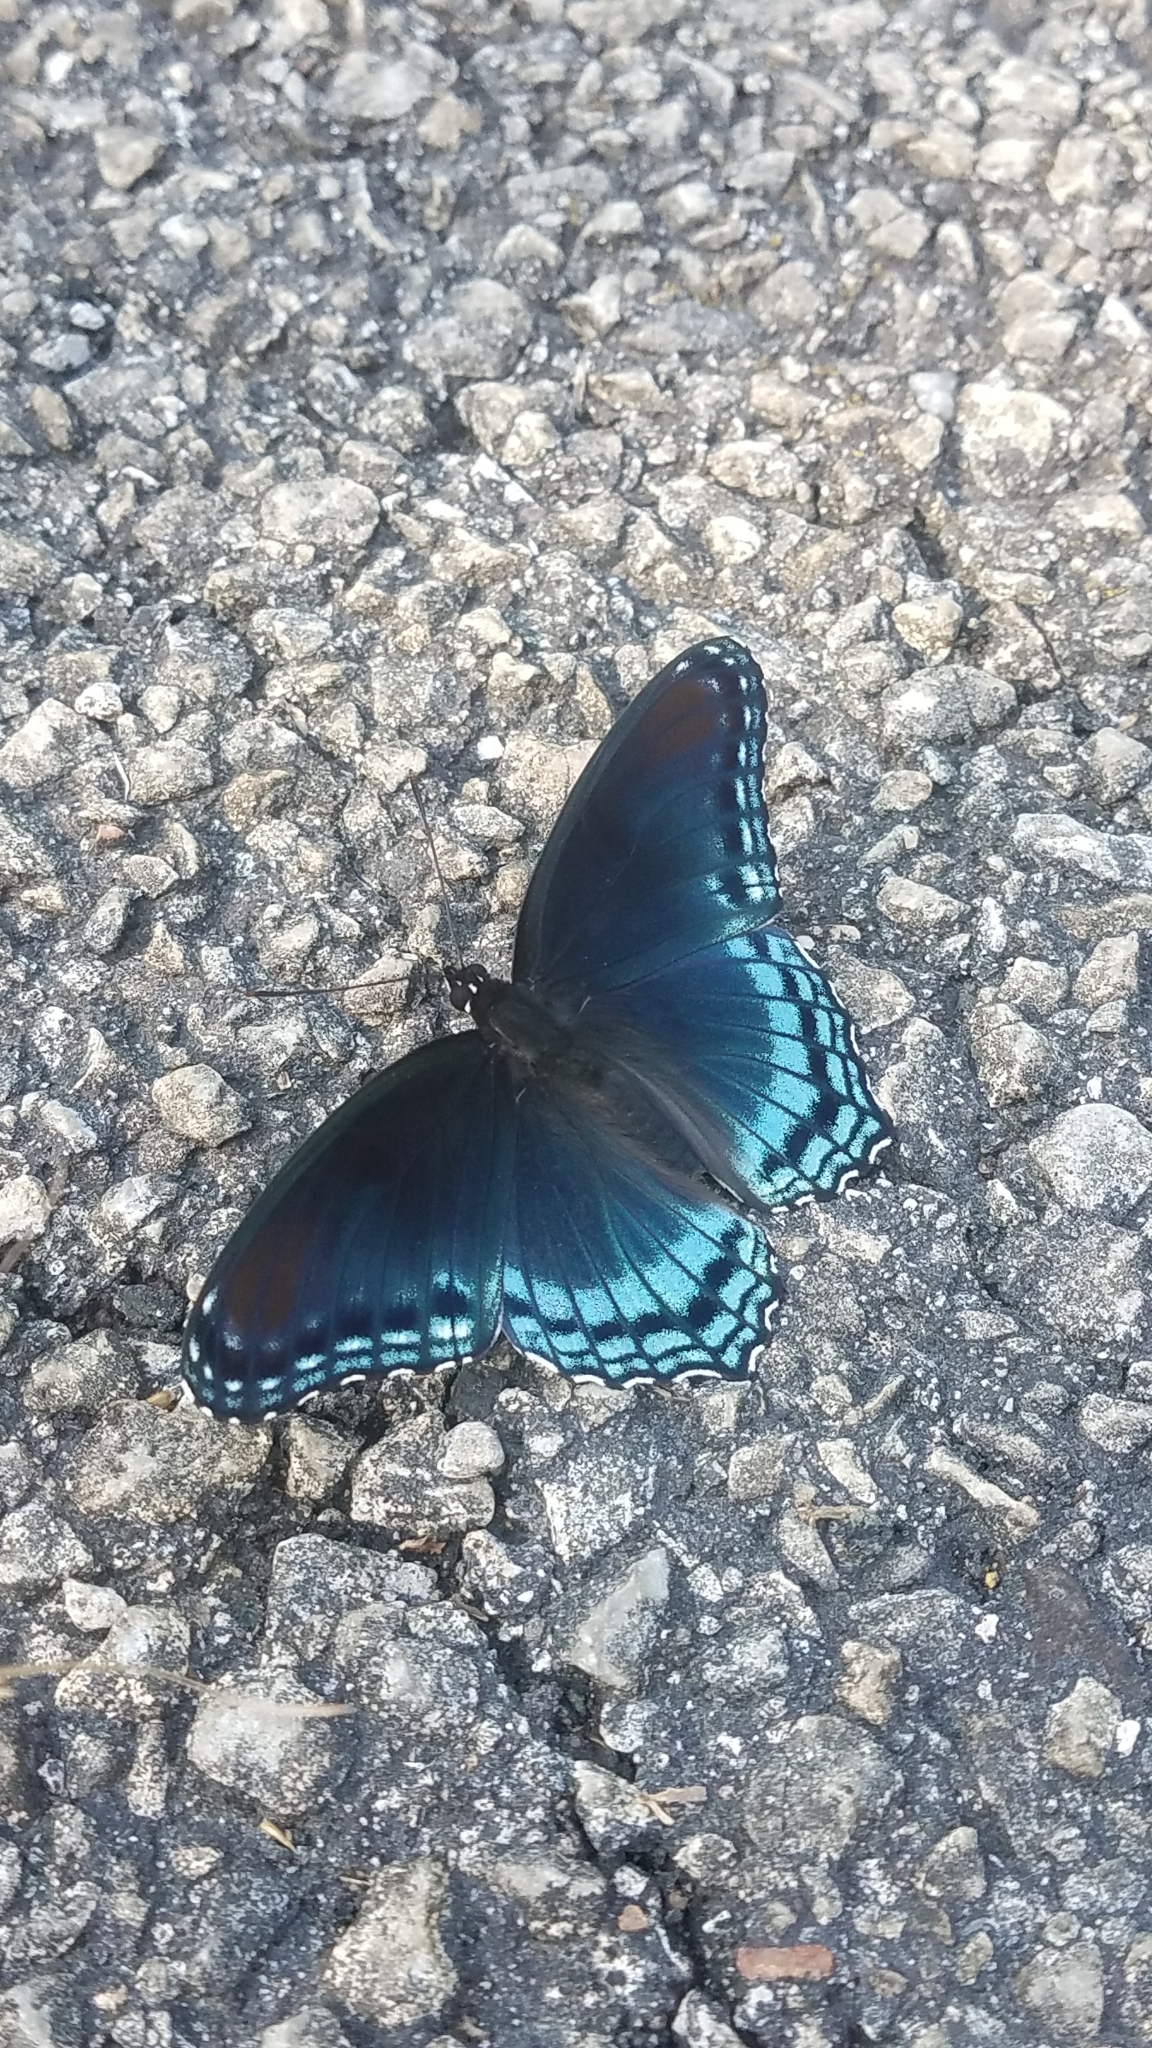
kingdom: Animalia
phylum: Arthropoda
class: Insecta
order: Lepidoptera
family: Nymphalidae
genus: Limenitis
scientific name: Limenitis arthemis
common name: Red-spotted admiral
